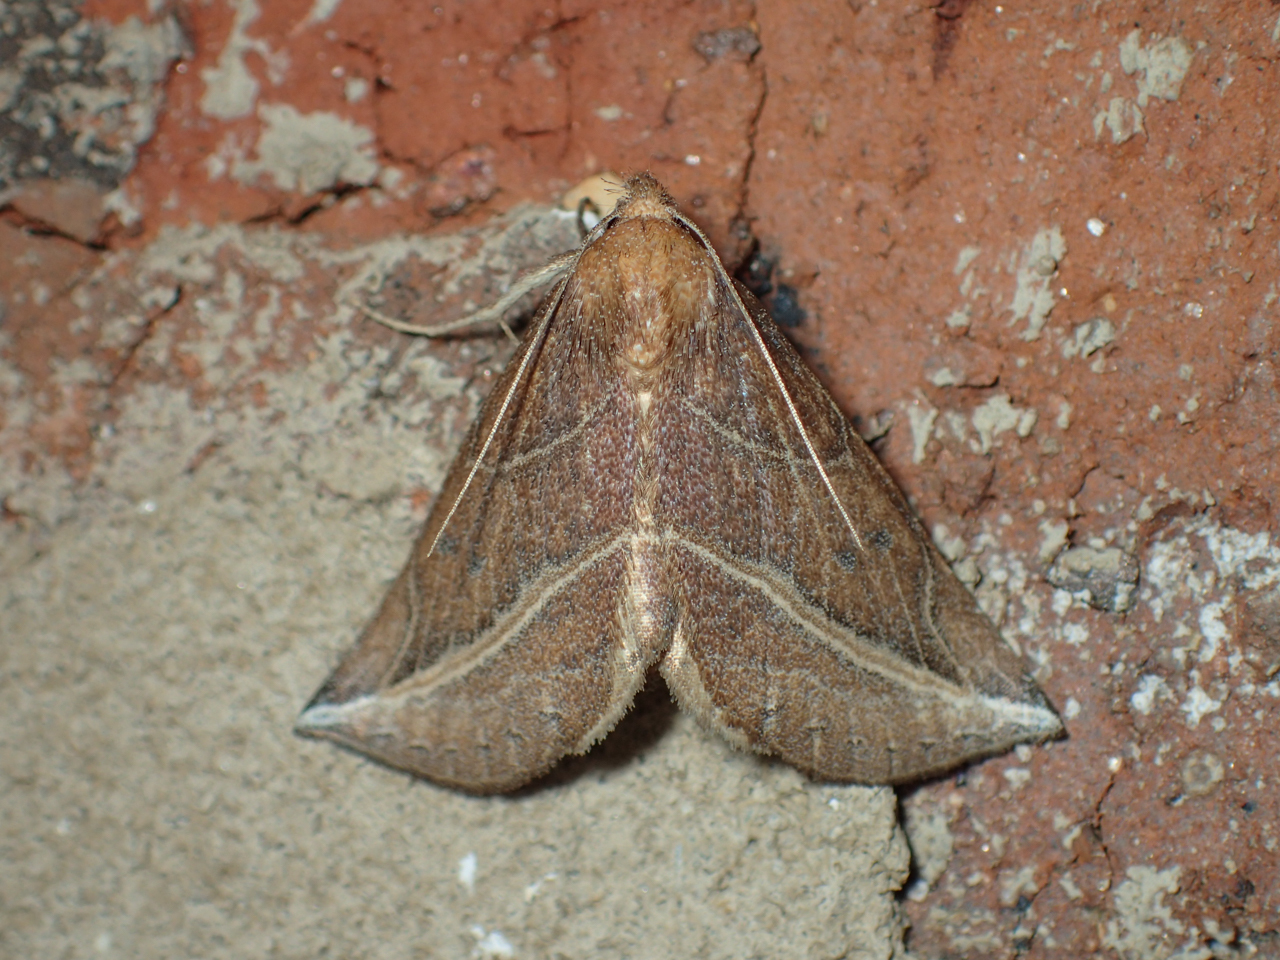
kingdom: Animalia
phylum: Arthropoda
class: Insecta
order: Lepidoptera
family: Erebidae
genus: Phyprosopus
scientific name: Phyprosopus callitrichoides
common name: Curved-lined owlet
